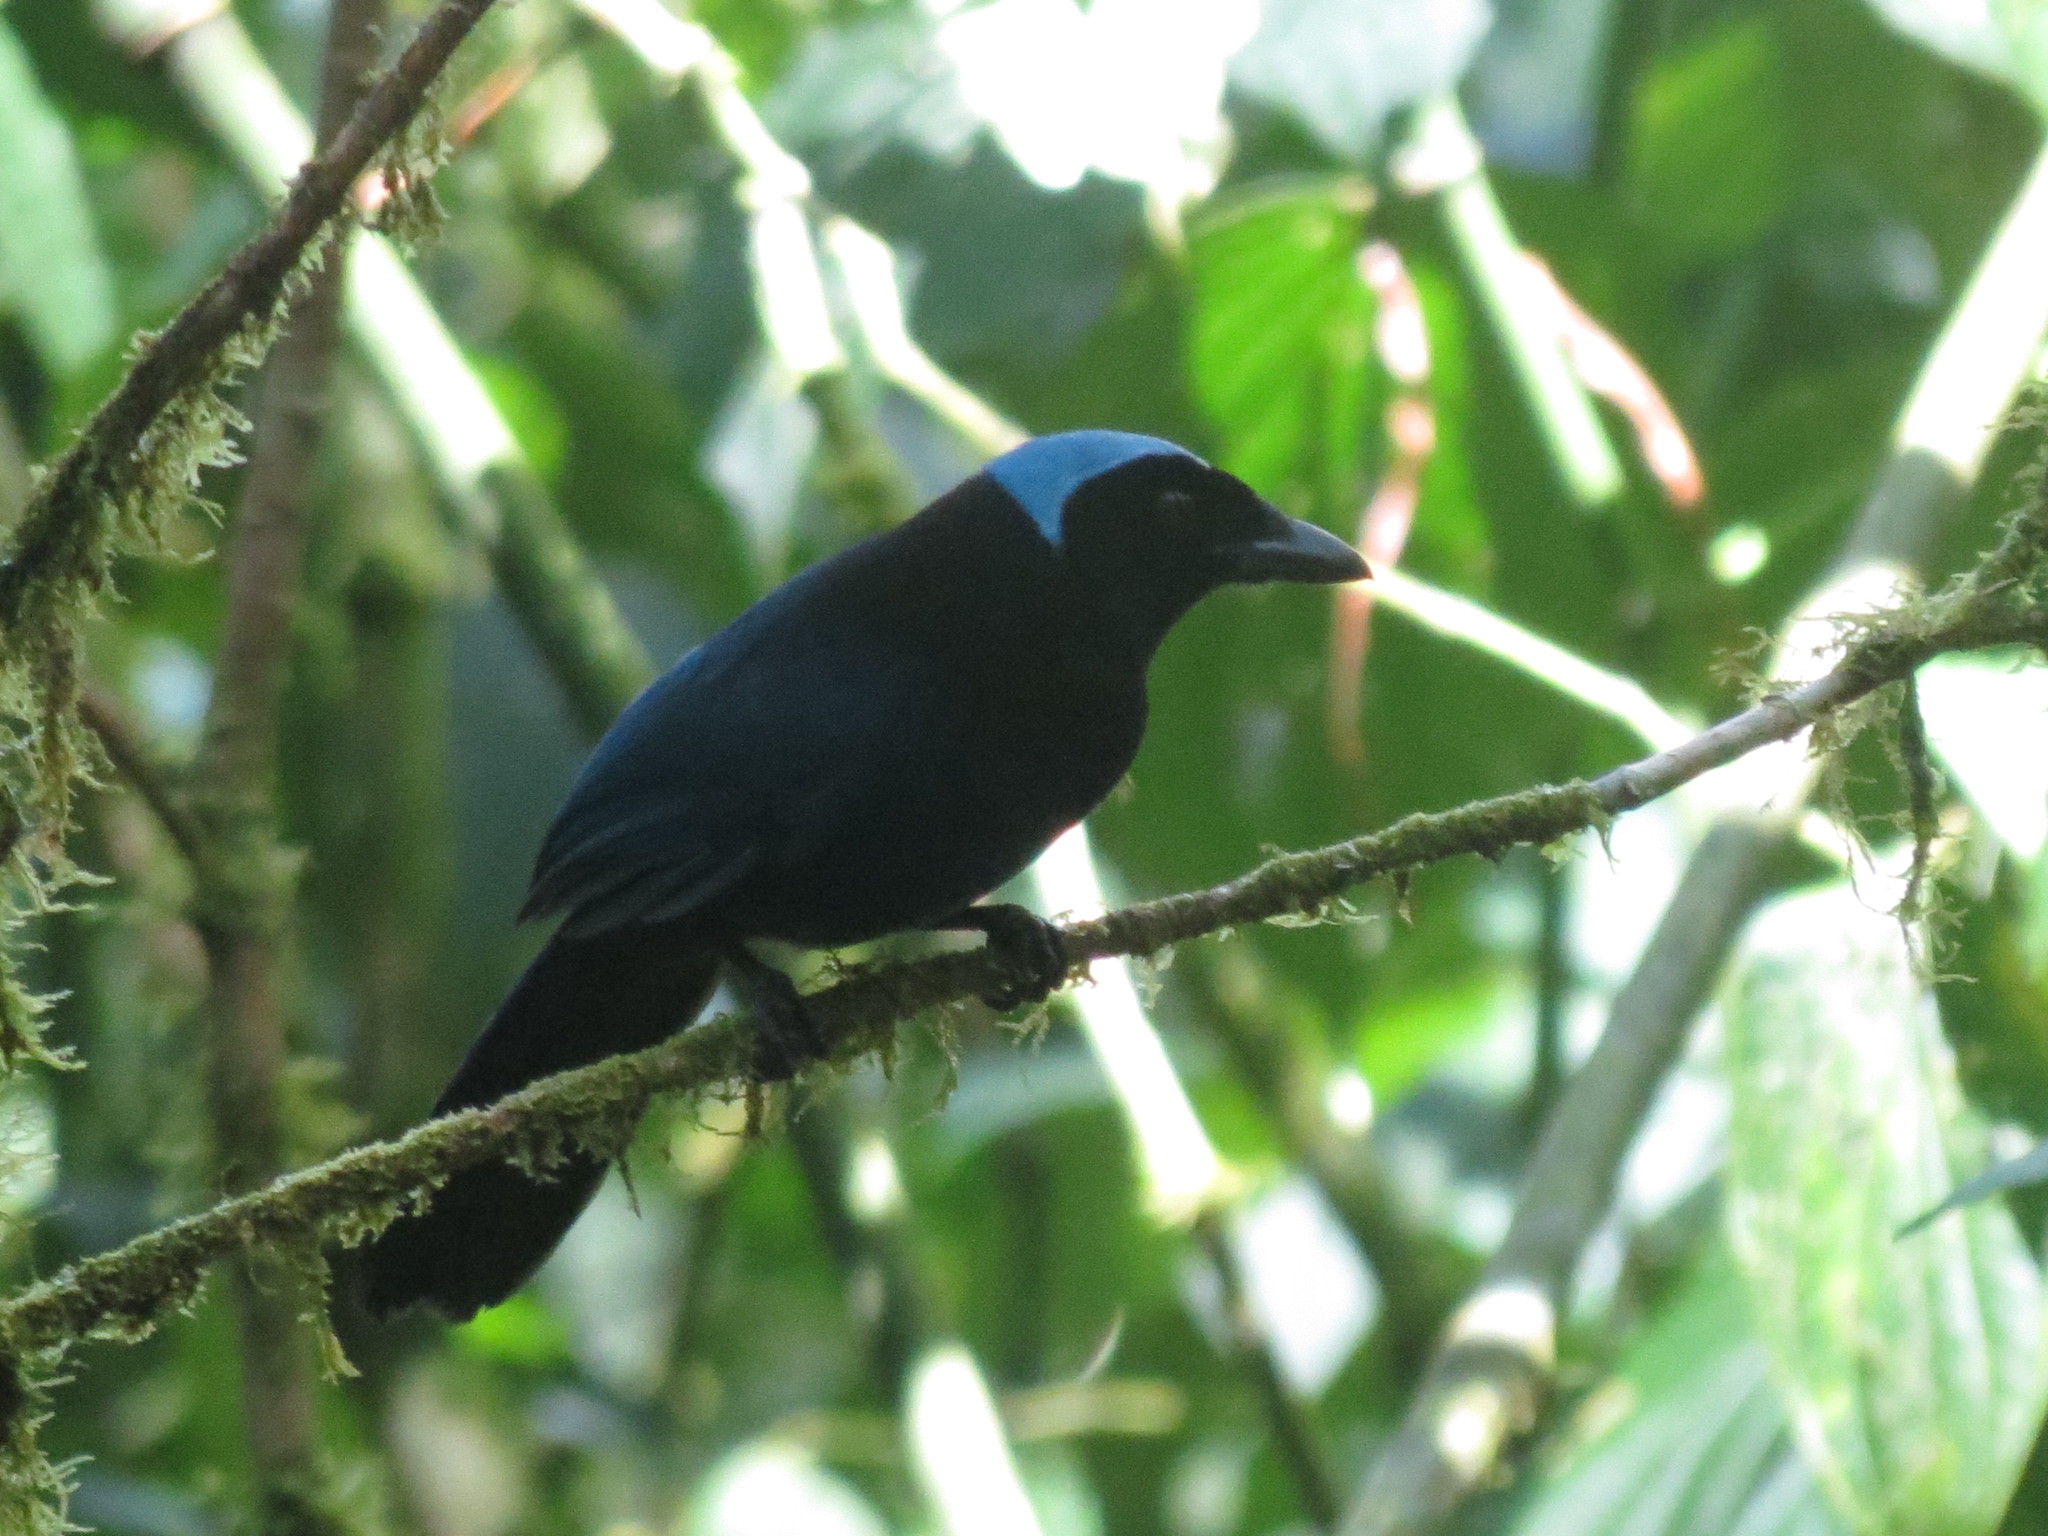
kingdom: Animalia
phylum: Chordata
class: Aves
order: Passeriformes
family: Corvidae
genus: Cyanolyca
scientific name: Cyanolyca cucullata
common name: Azure-hooded jay
